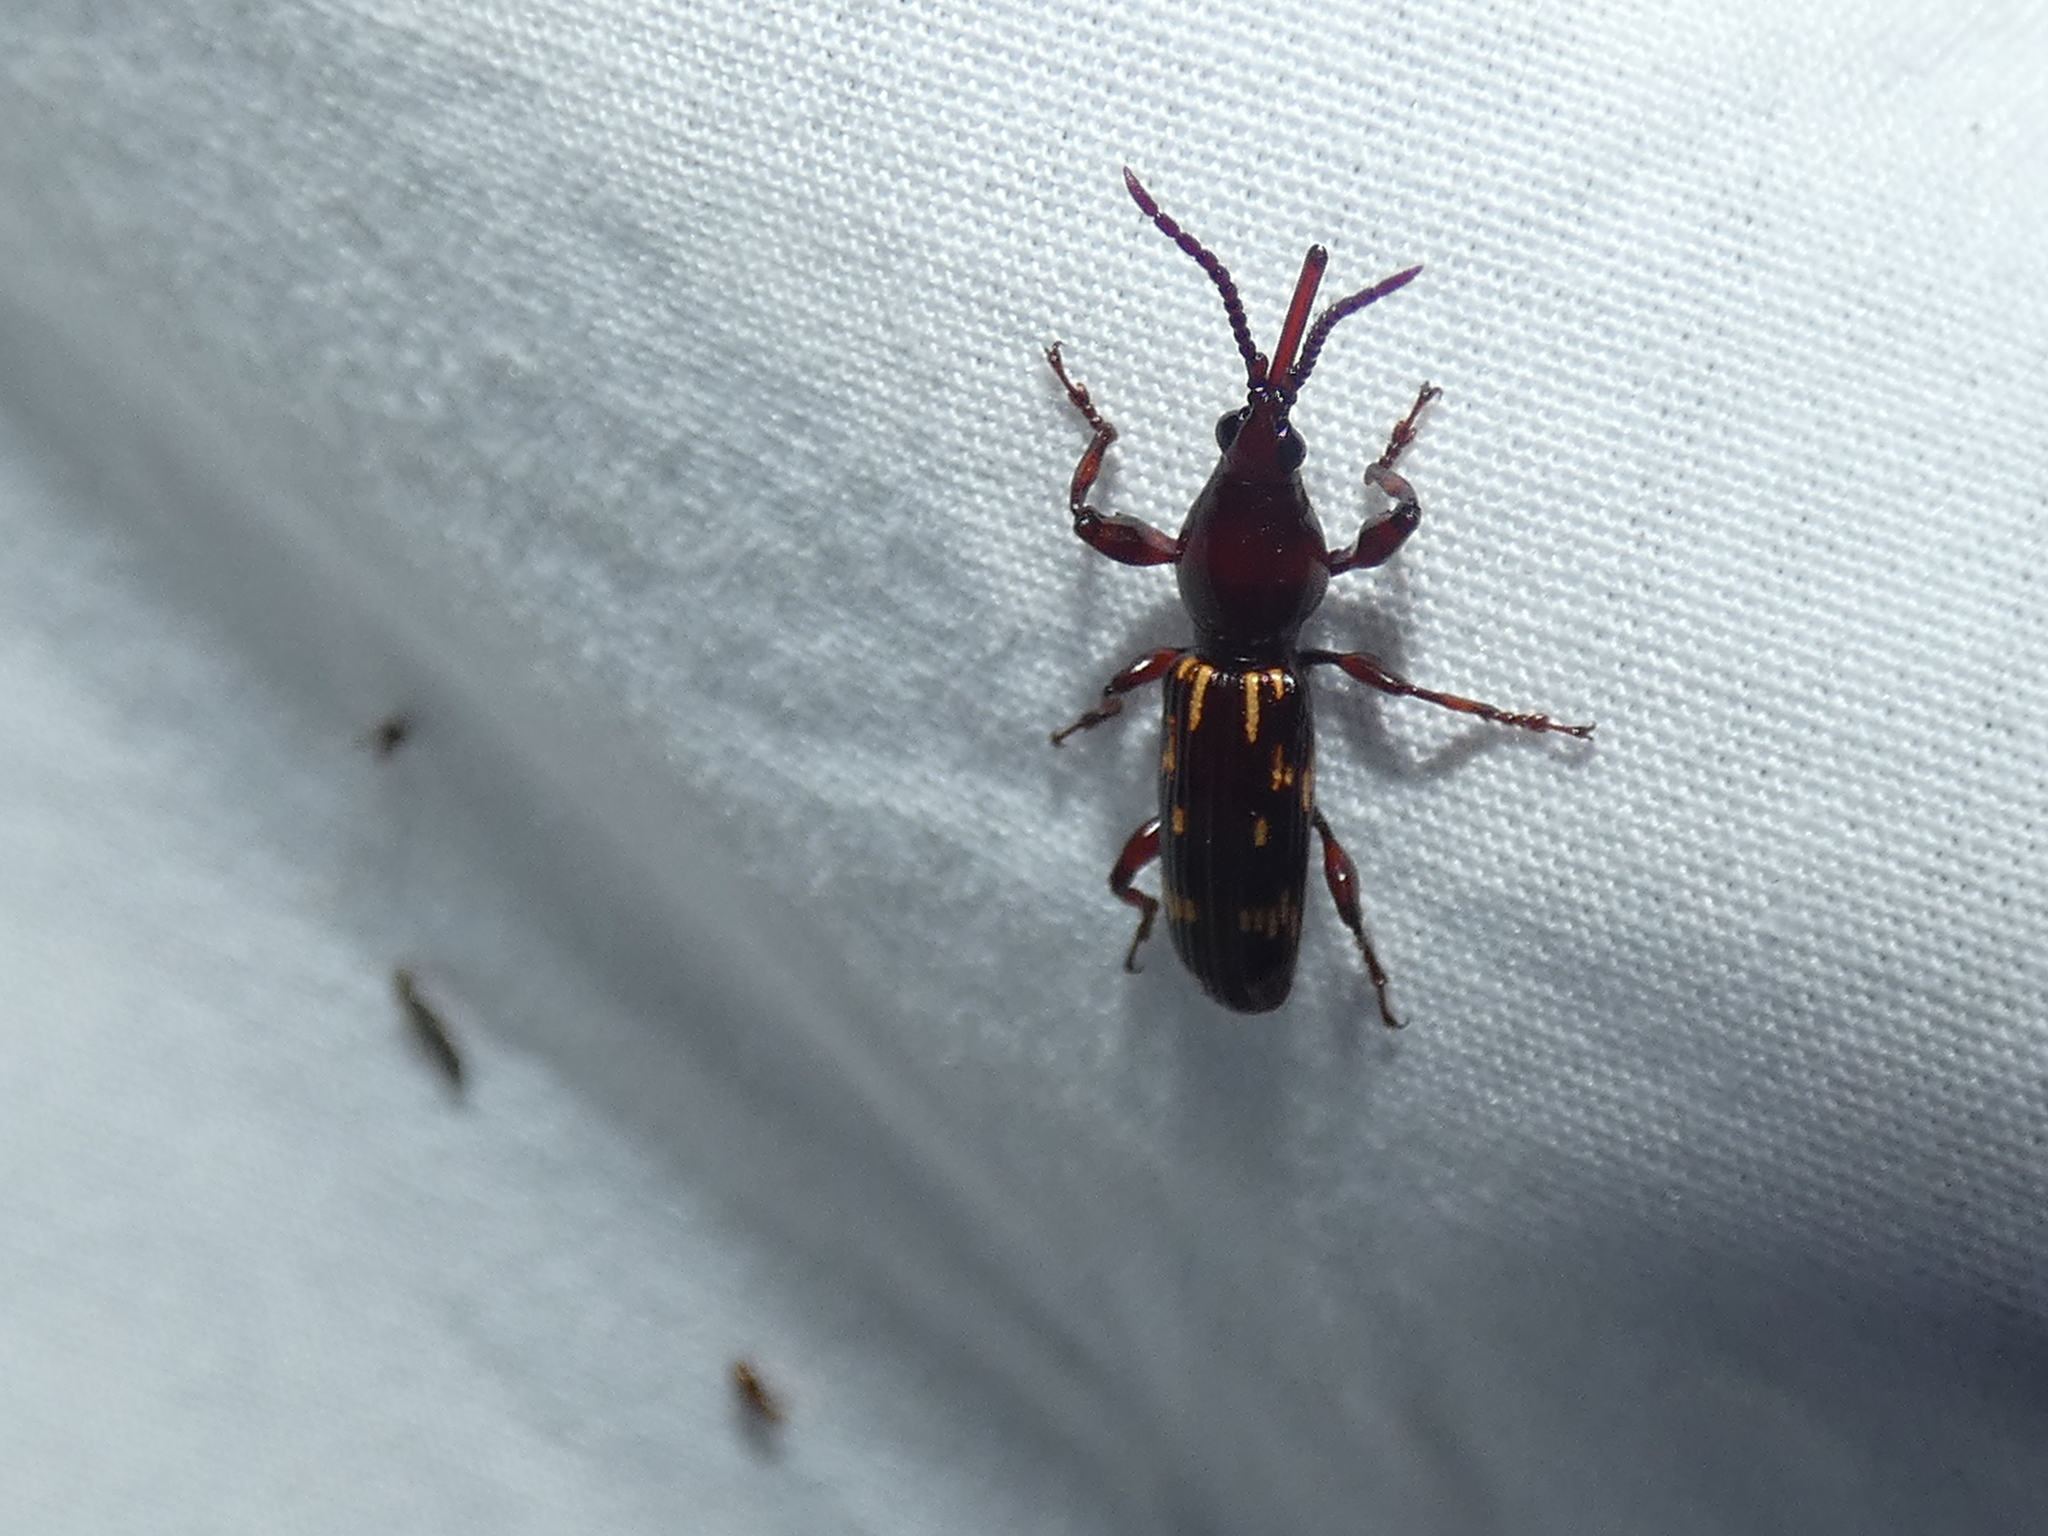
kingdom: Animalia
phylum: Arthropoda
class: Insecta
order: Coleoptera
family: Brentidae
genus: Arrenodes
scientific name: Arrenodes minutus
